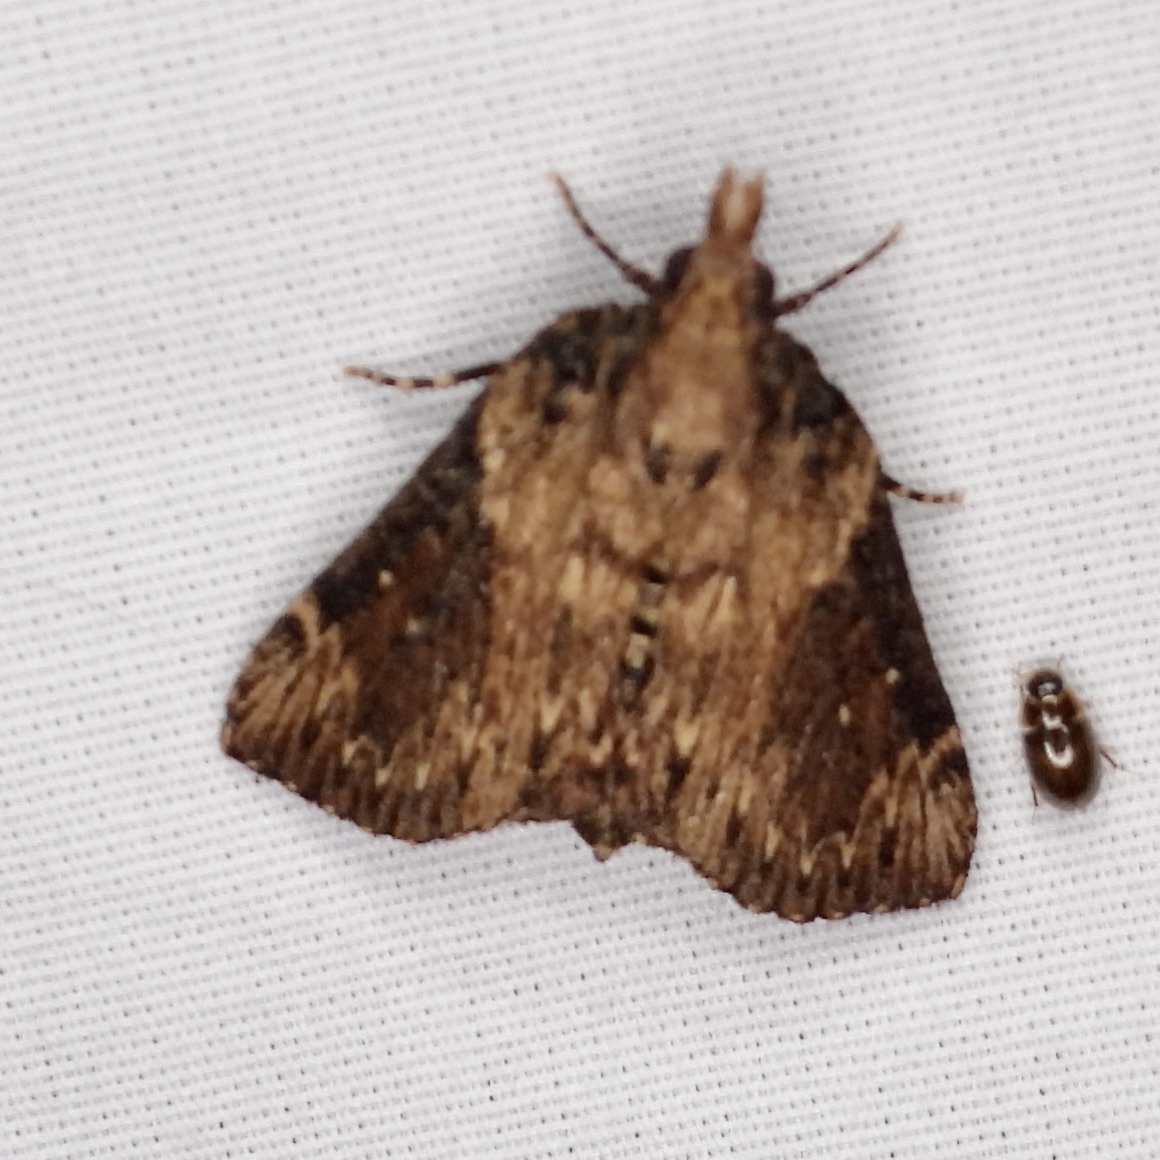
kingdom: Animalia
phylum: Arthropoda
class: Insecta
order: Lepidoptera
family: Pyralidae
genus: Omphalocera
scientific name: Omphalocera cariosa
